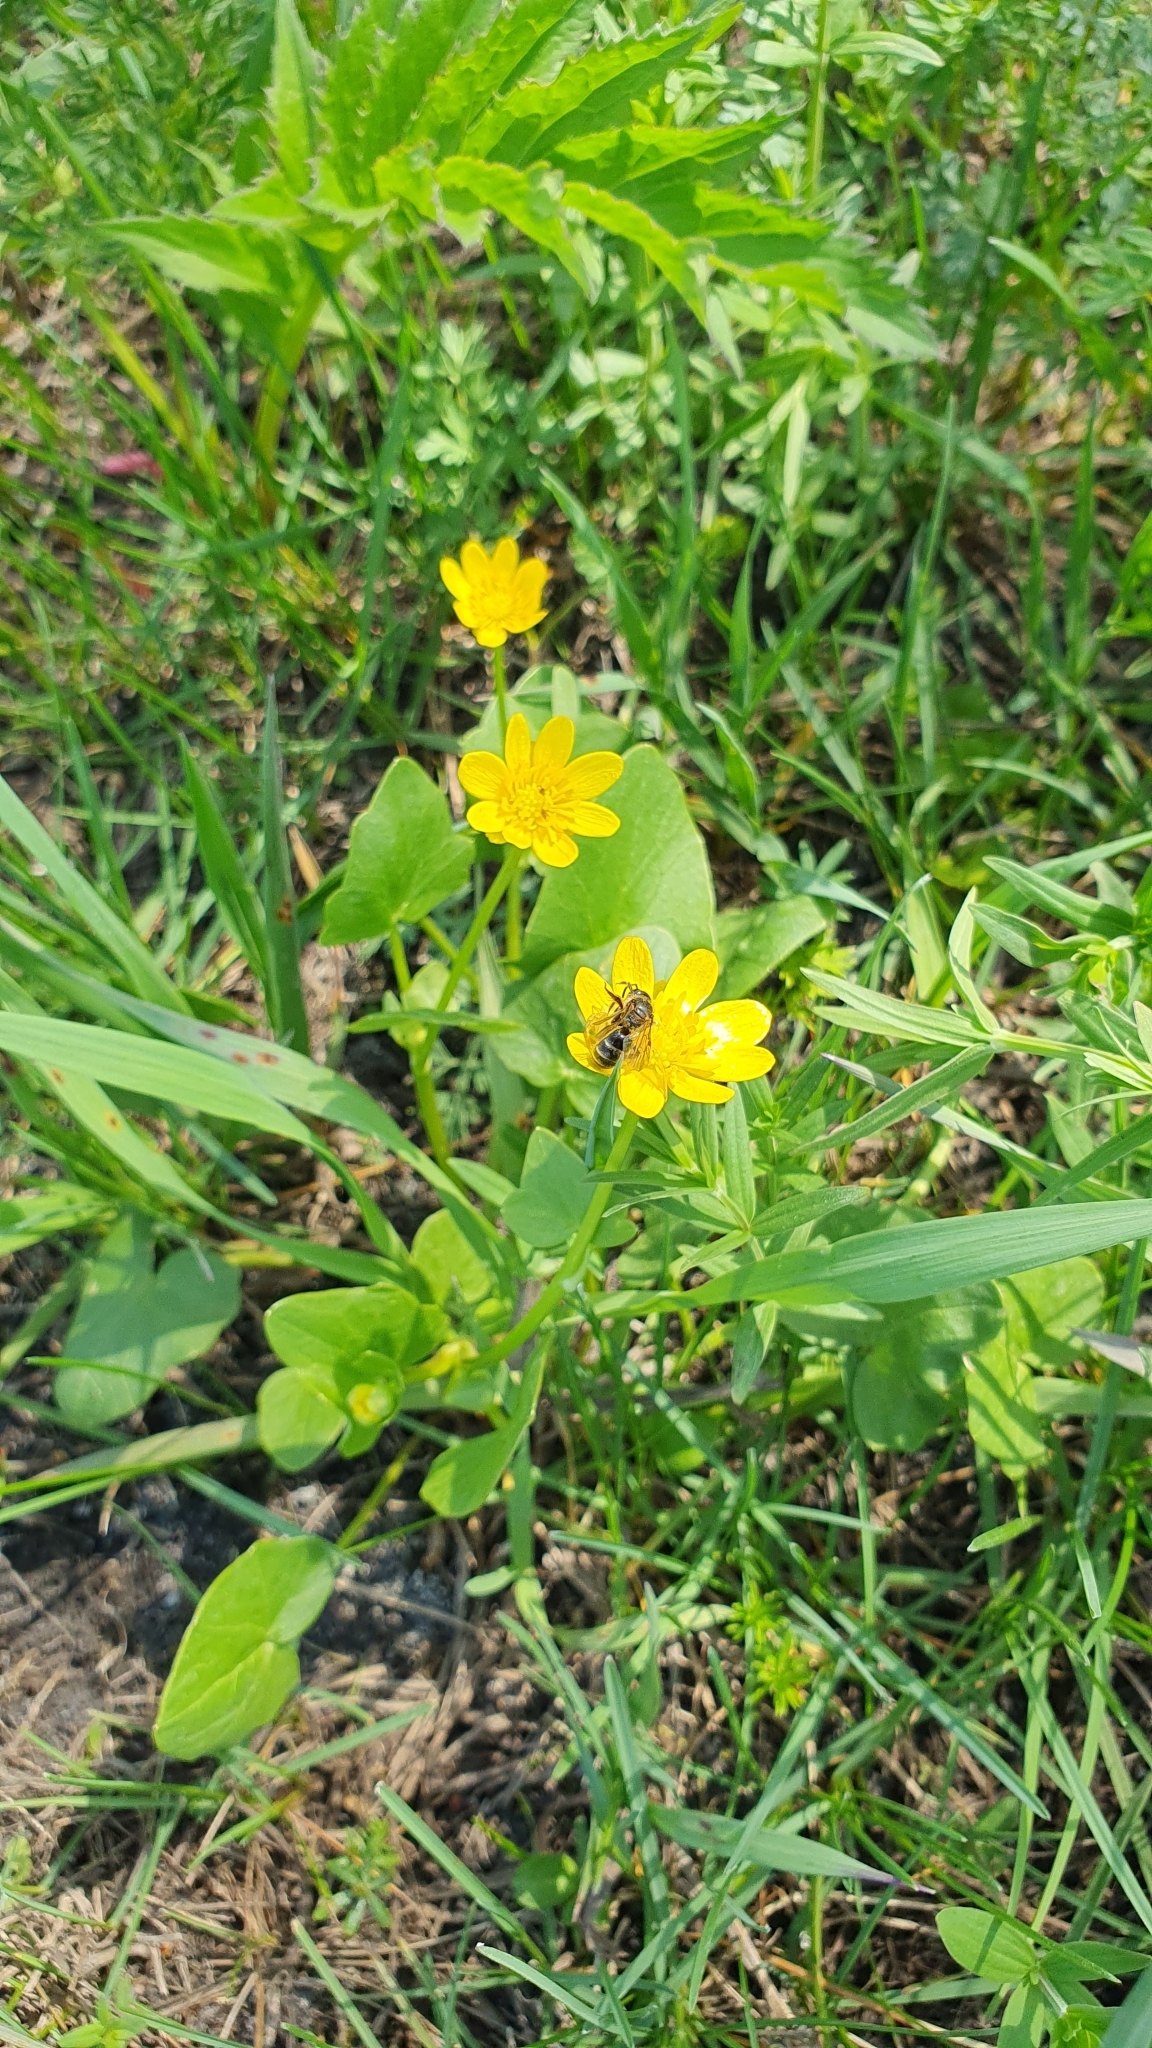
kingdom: Plantae
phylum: Tracheophyta
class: Magnoliopsida
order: Ranunculales
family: Ranunculaceae
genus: Ficaria
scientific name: Ficaria verna
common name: Lesser celandine
